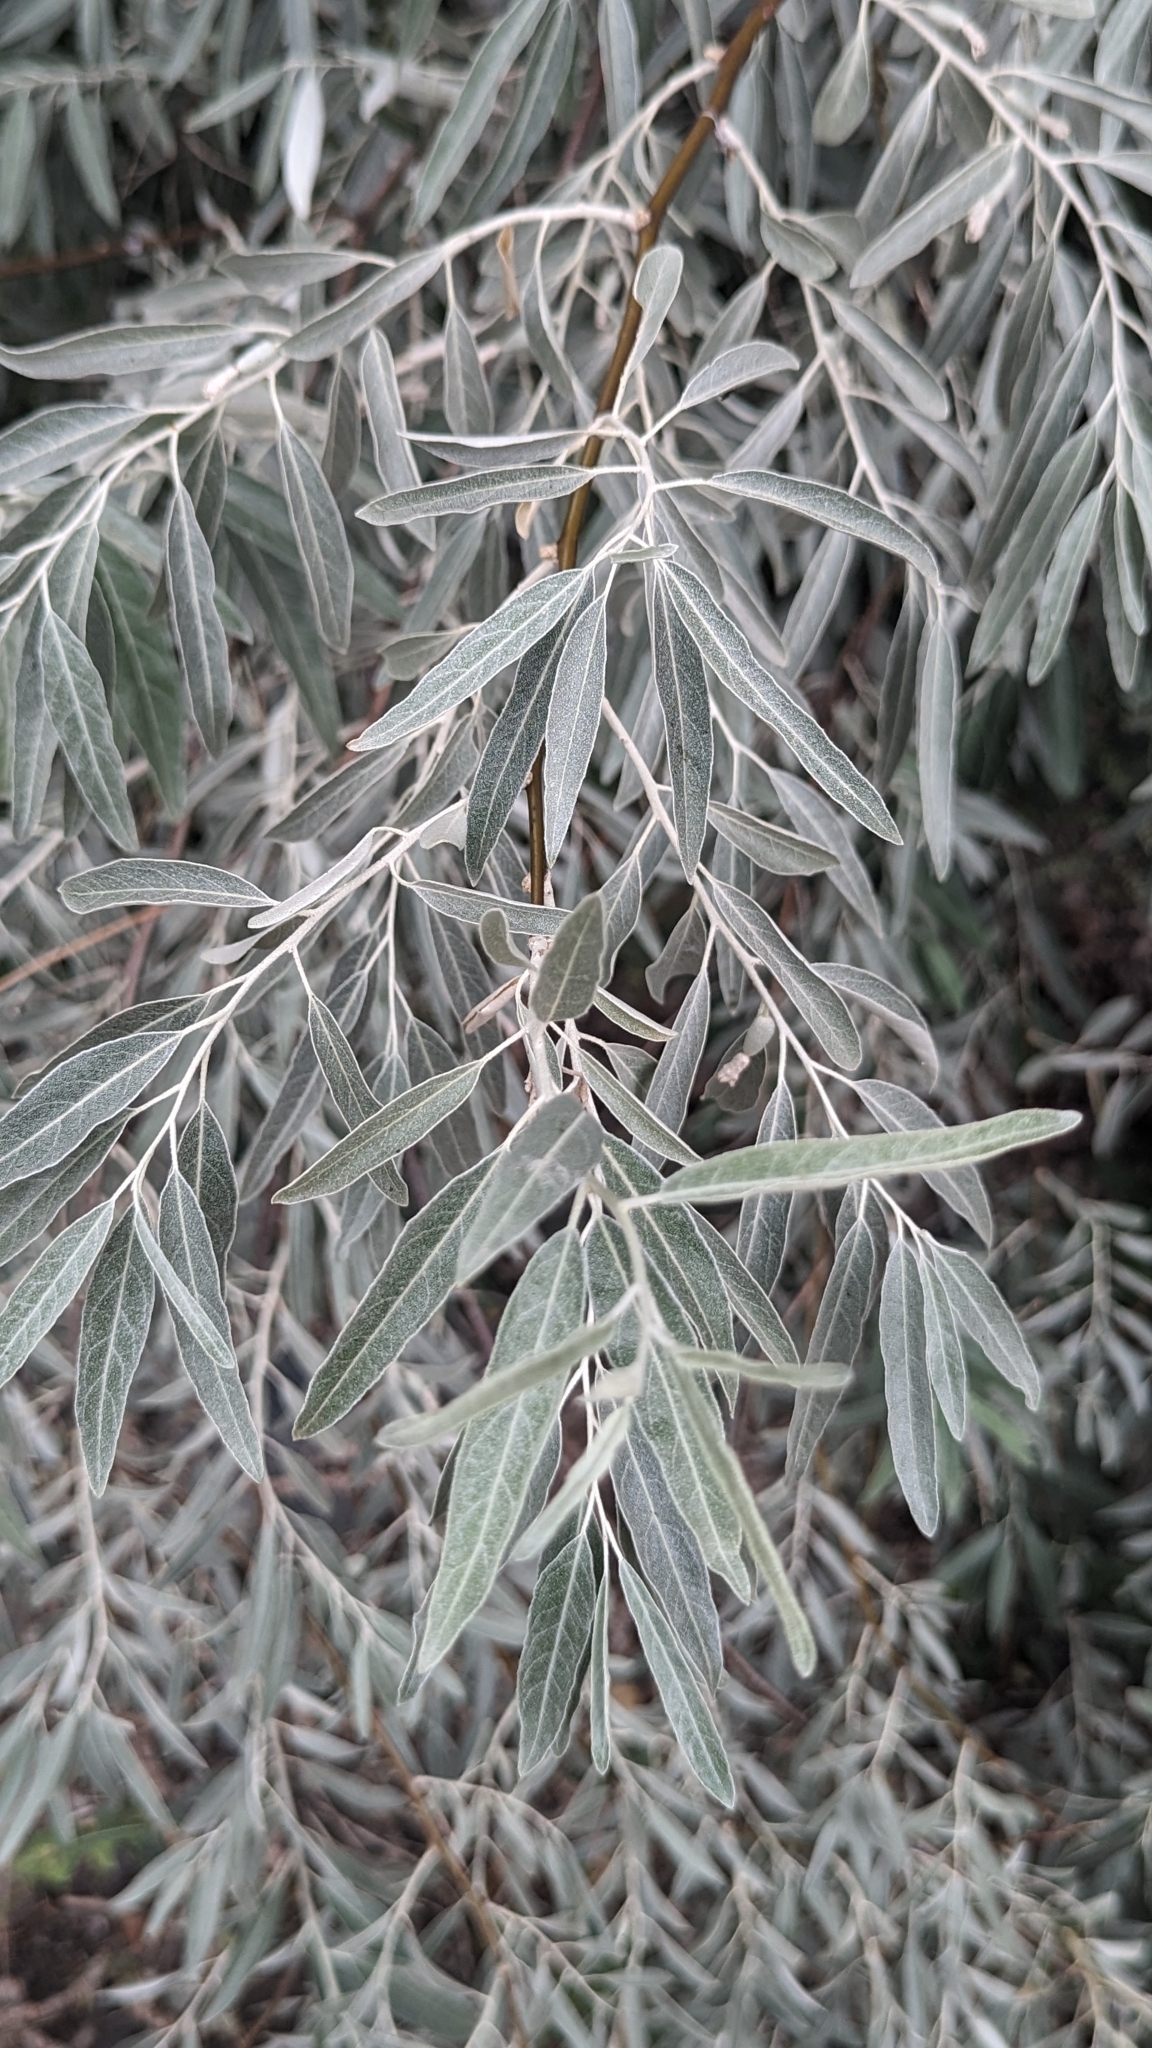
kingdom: Plantae
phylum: Tracheophyta
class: Magnoliopsida
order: Rosales
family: Elaeagnaceae
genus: Elaeagnus
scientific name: Elaeagnus angustifolia
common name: Russian olive
